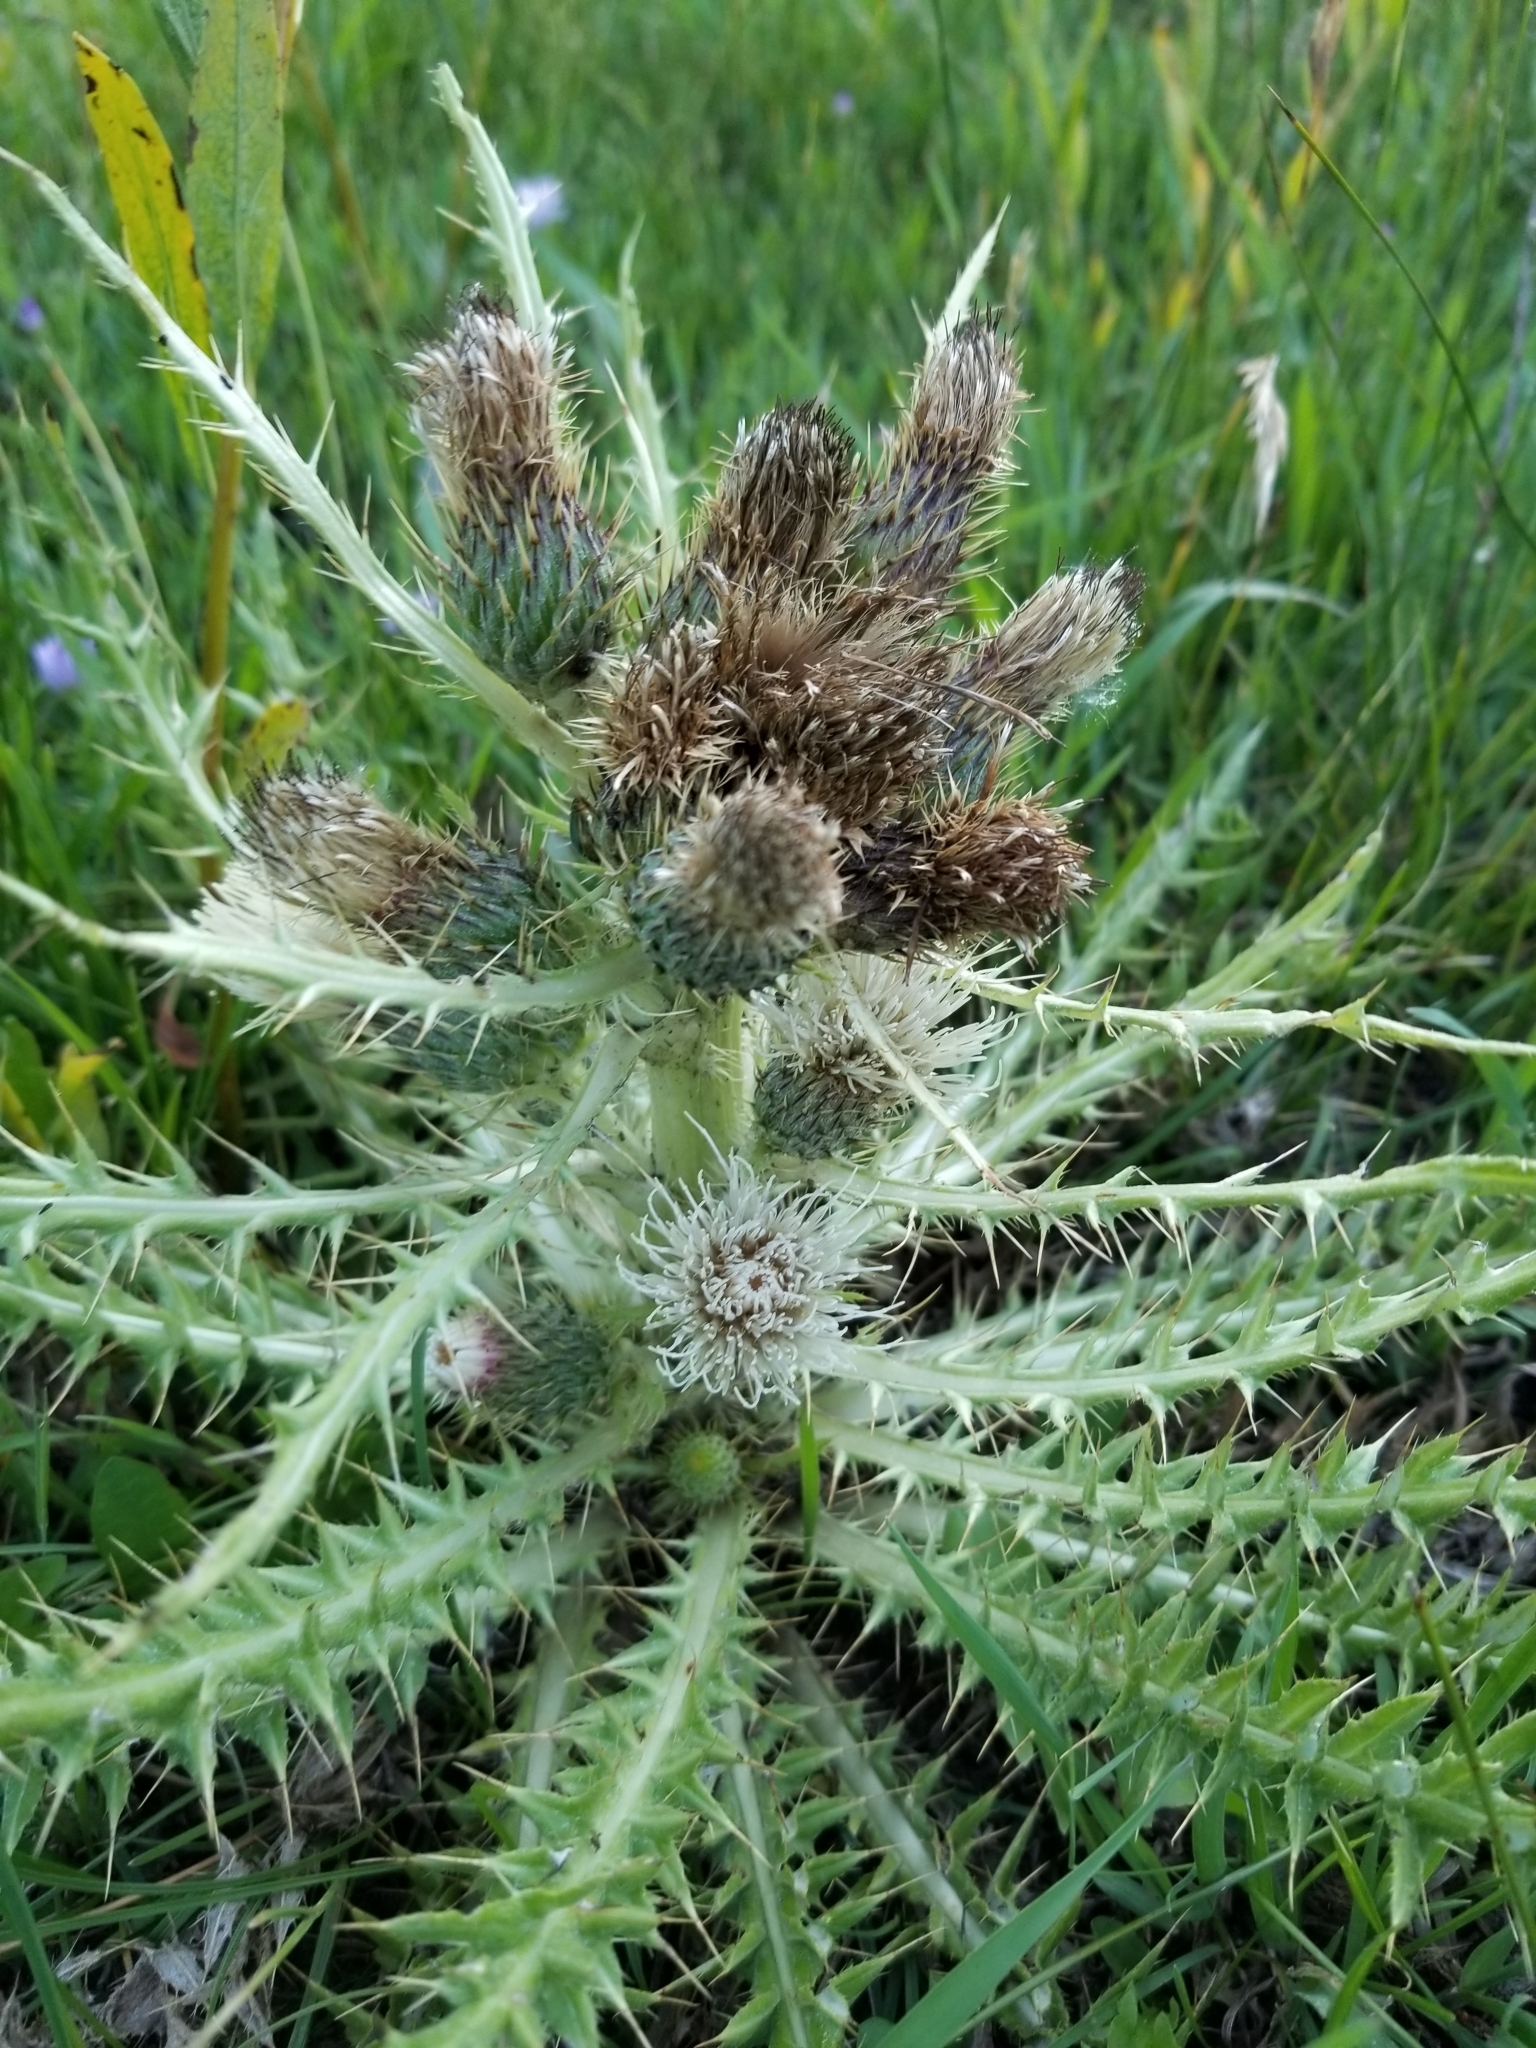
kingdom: Plantae
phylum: Tracheophyta
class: Magnoliopsida
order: Asterales
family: Asteraceae
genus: Cirsium
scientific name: Cirsium scariosum
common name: Meadow thistle
